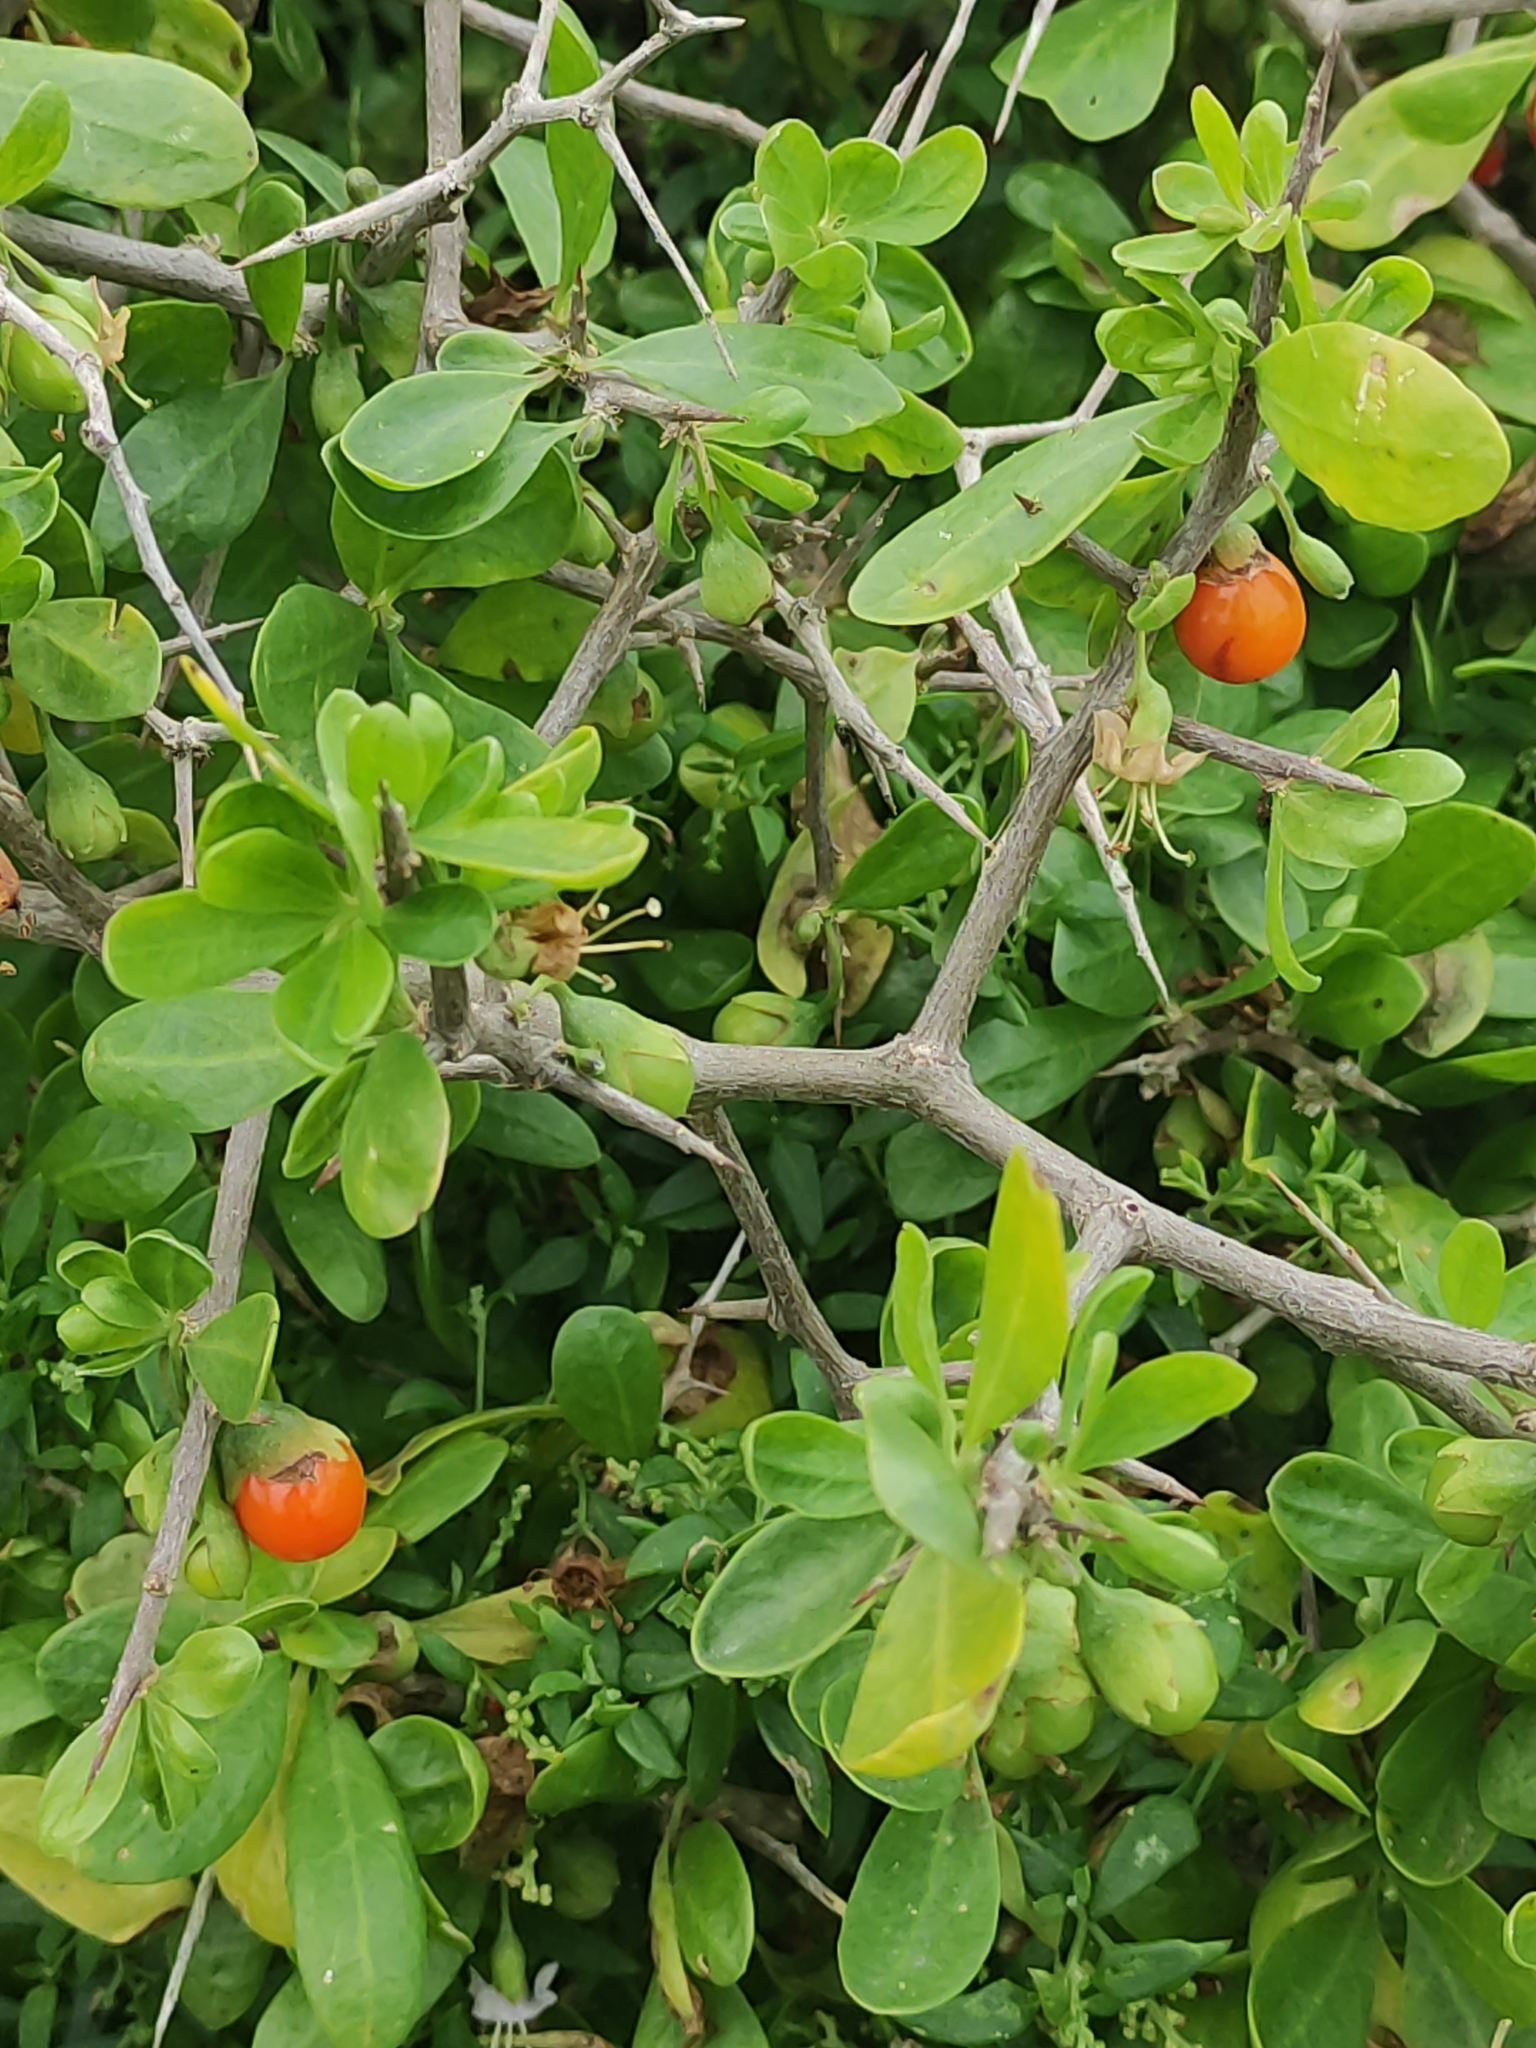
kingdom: Plantae
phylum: Tracheophyta
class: Magnoliopsida
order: Solanales
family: Solanaceae
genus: Lycium
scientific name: Lycium ferocissimum
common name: African boxthorn
